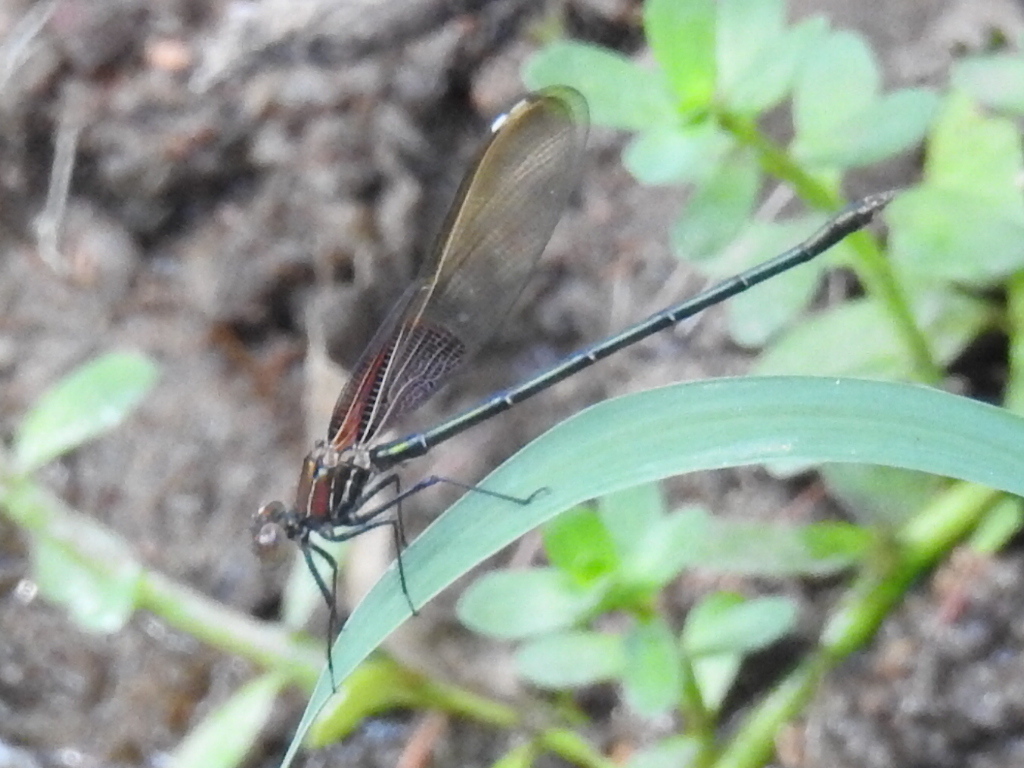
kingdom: Animalia
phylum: Arthropoda
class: Insecta
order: Odonata
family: Calopterygidae
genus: Hetaerina
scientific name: Hetaerina americana
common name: American rubyspot
